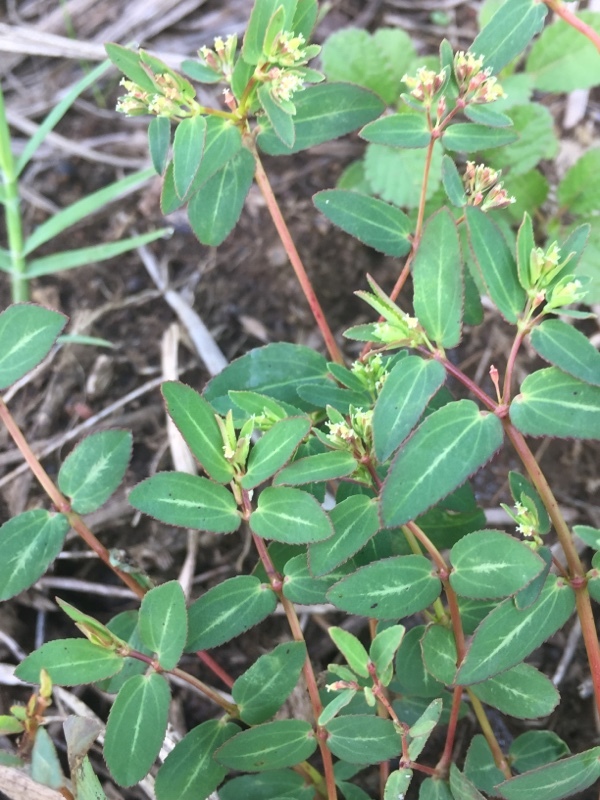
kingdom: Plantae
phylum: Tracheophyta
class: Magnoliopsida
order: Malpighiales
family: Euphorbiaceae
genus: Euphorbia
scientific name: Euphorbia hyssopifolia
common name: Hyssopleaf sandmat
